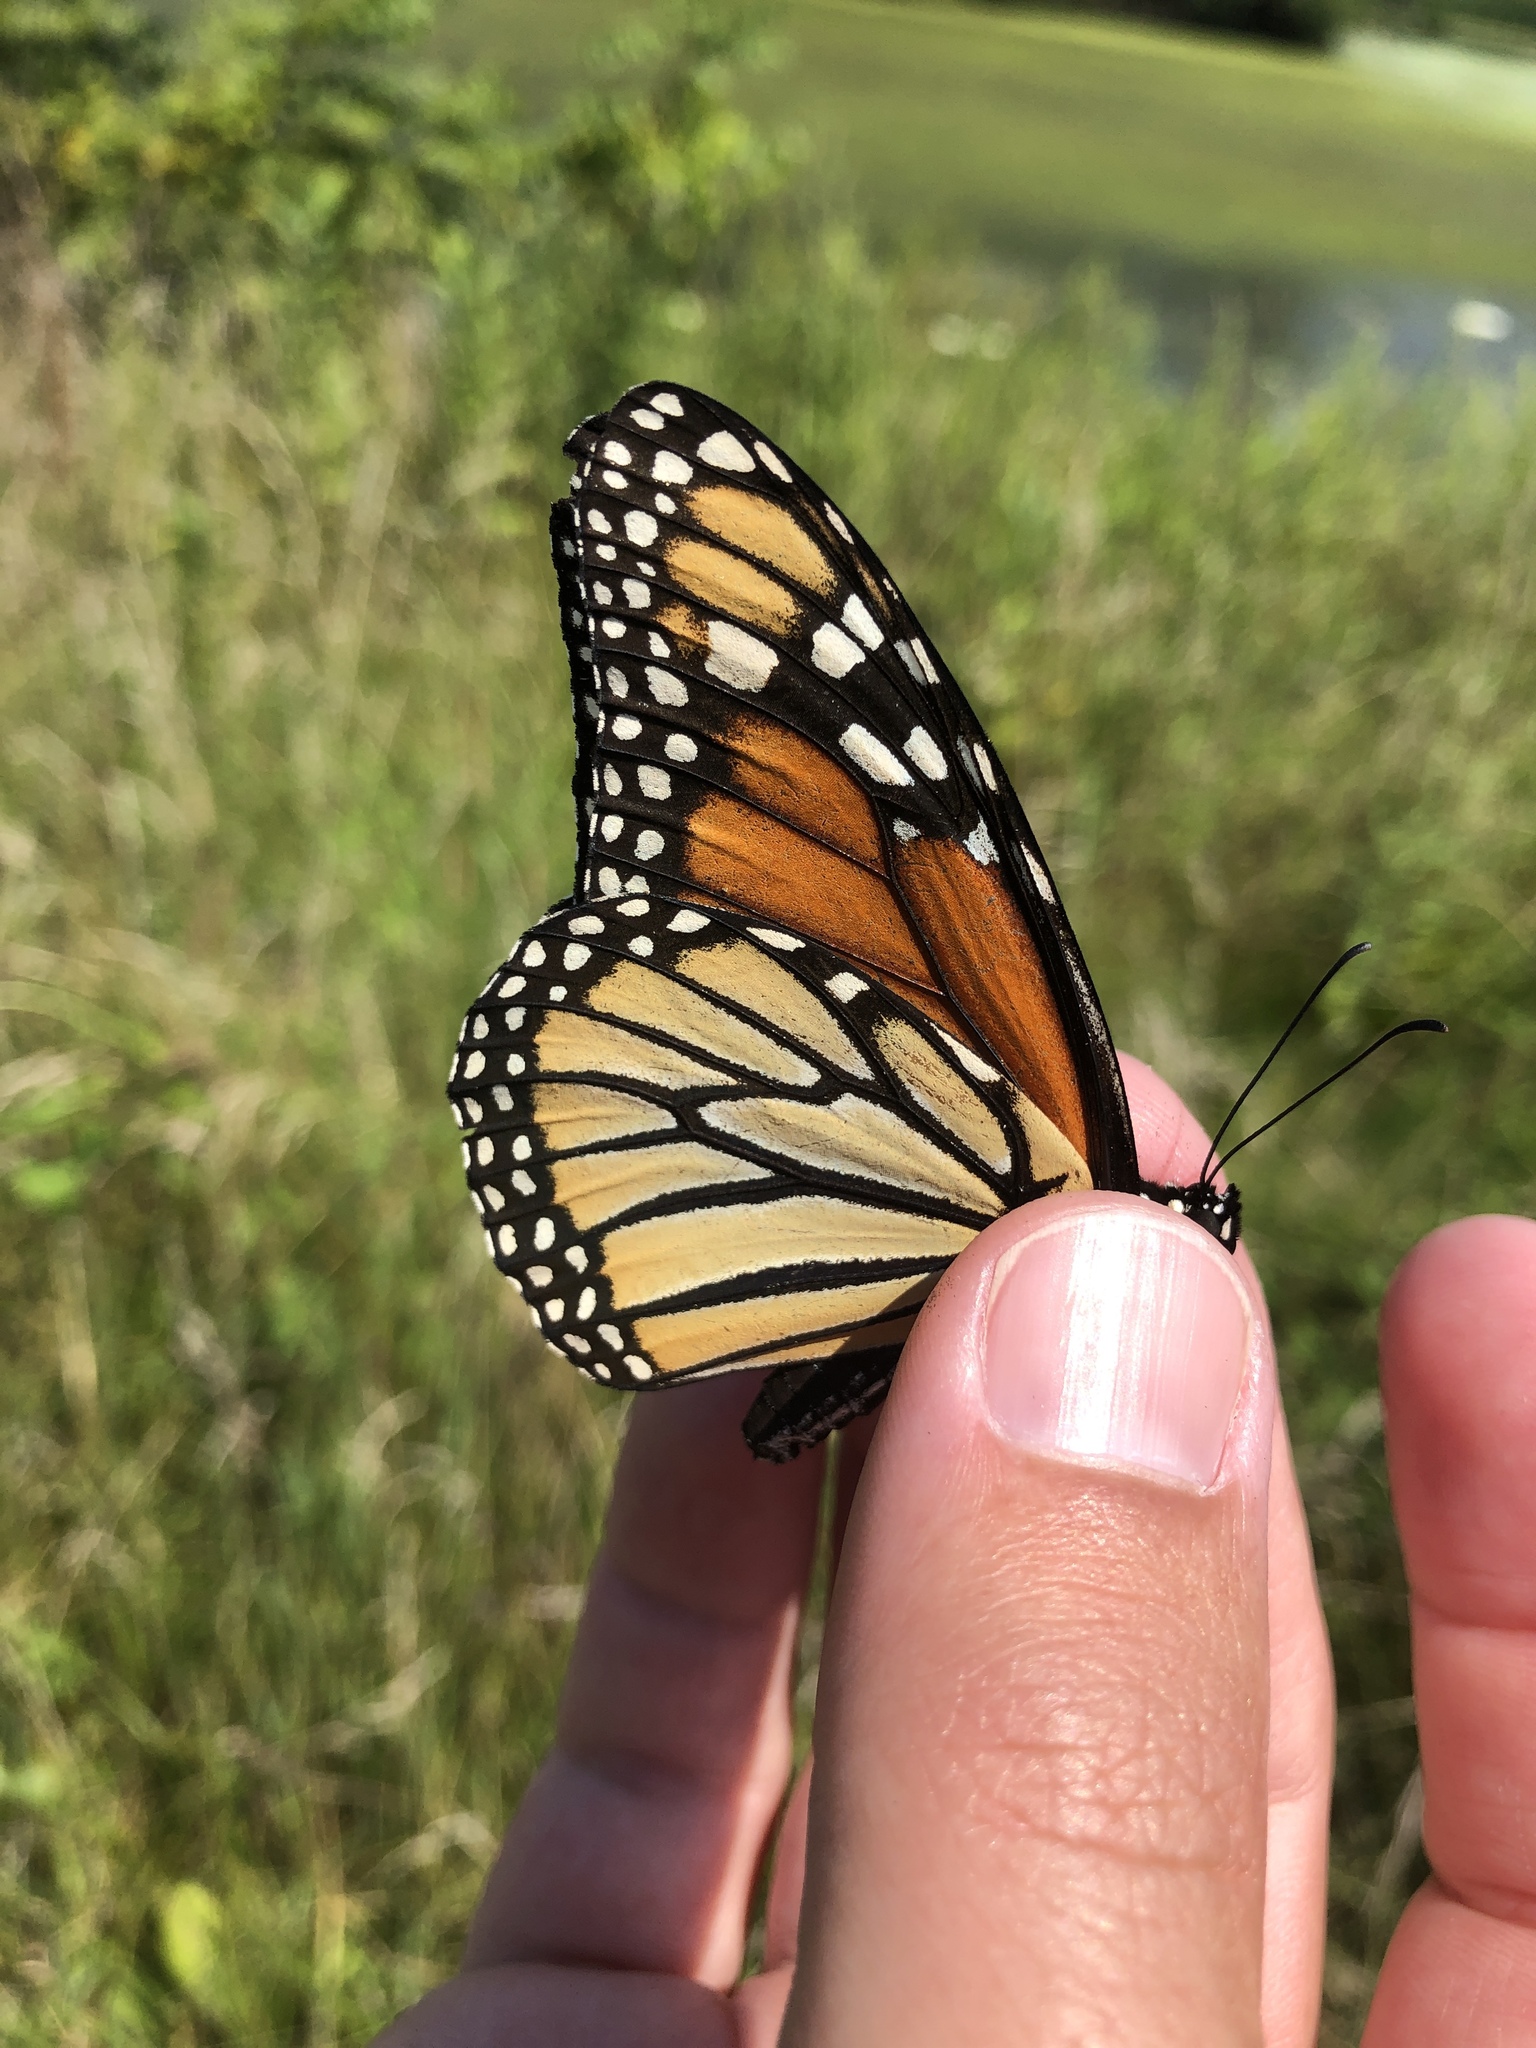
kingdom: Animalia
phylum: Arthropoda
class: Insecta
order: Lepidoptera
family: Nymphalidae
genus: Danaus
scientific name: Danaus plexippus
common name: Monarch
